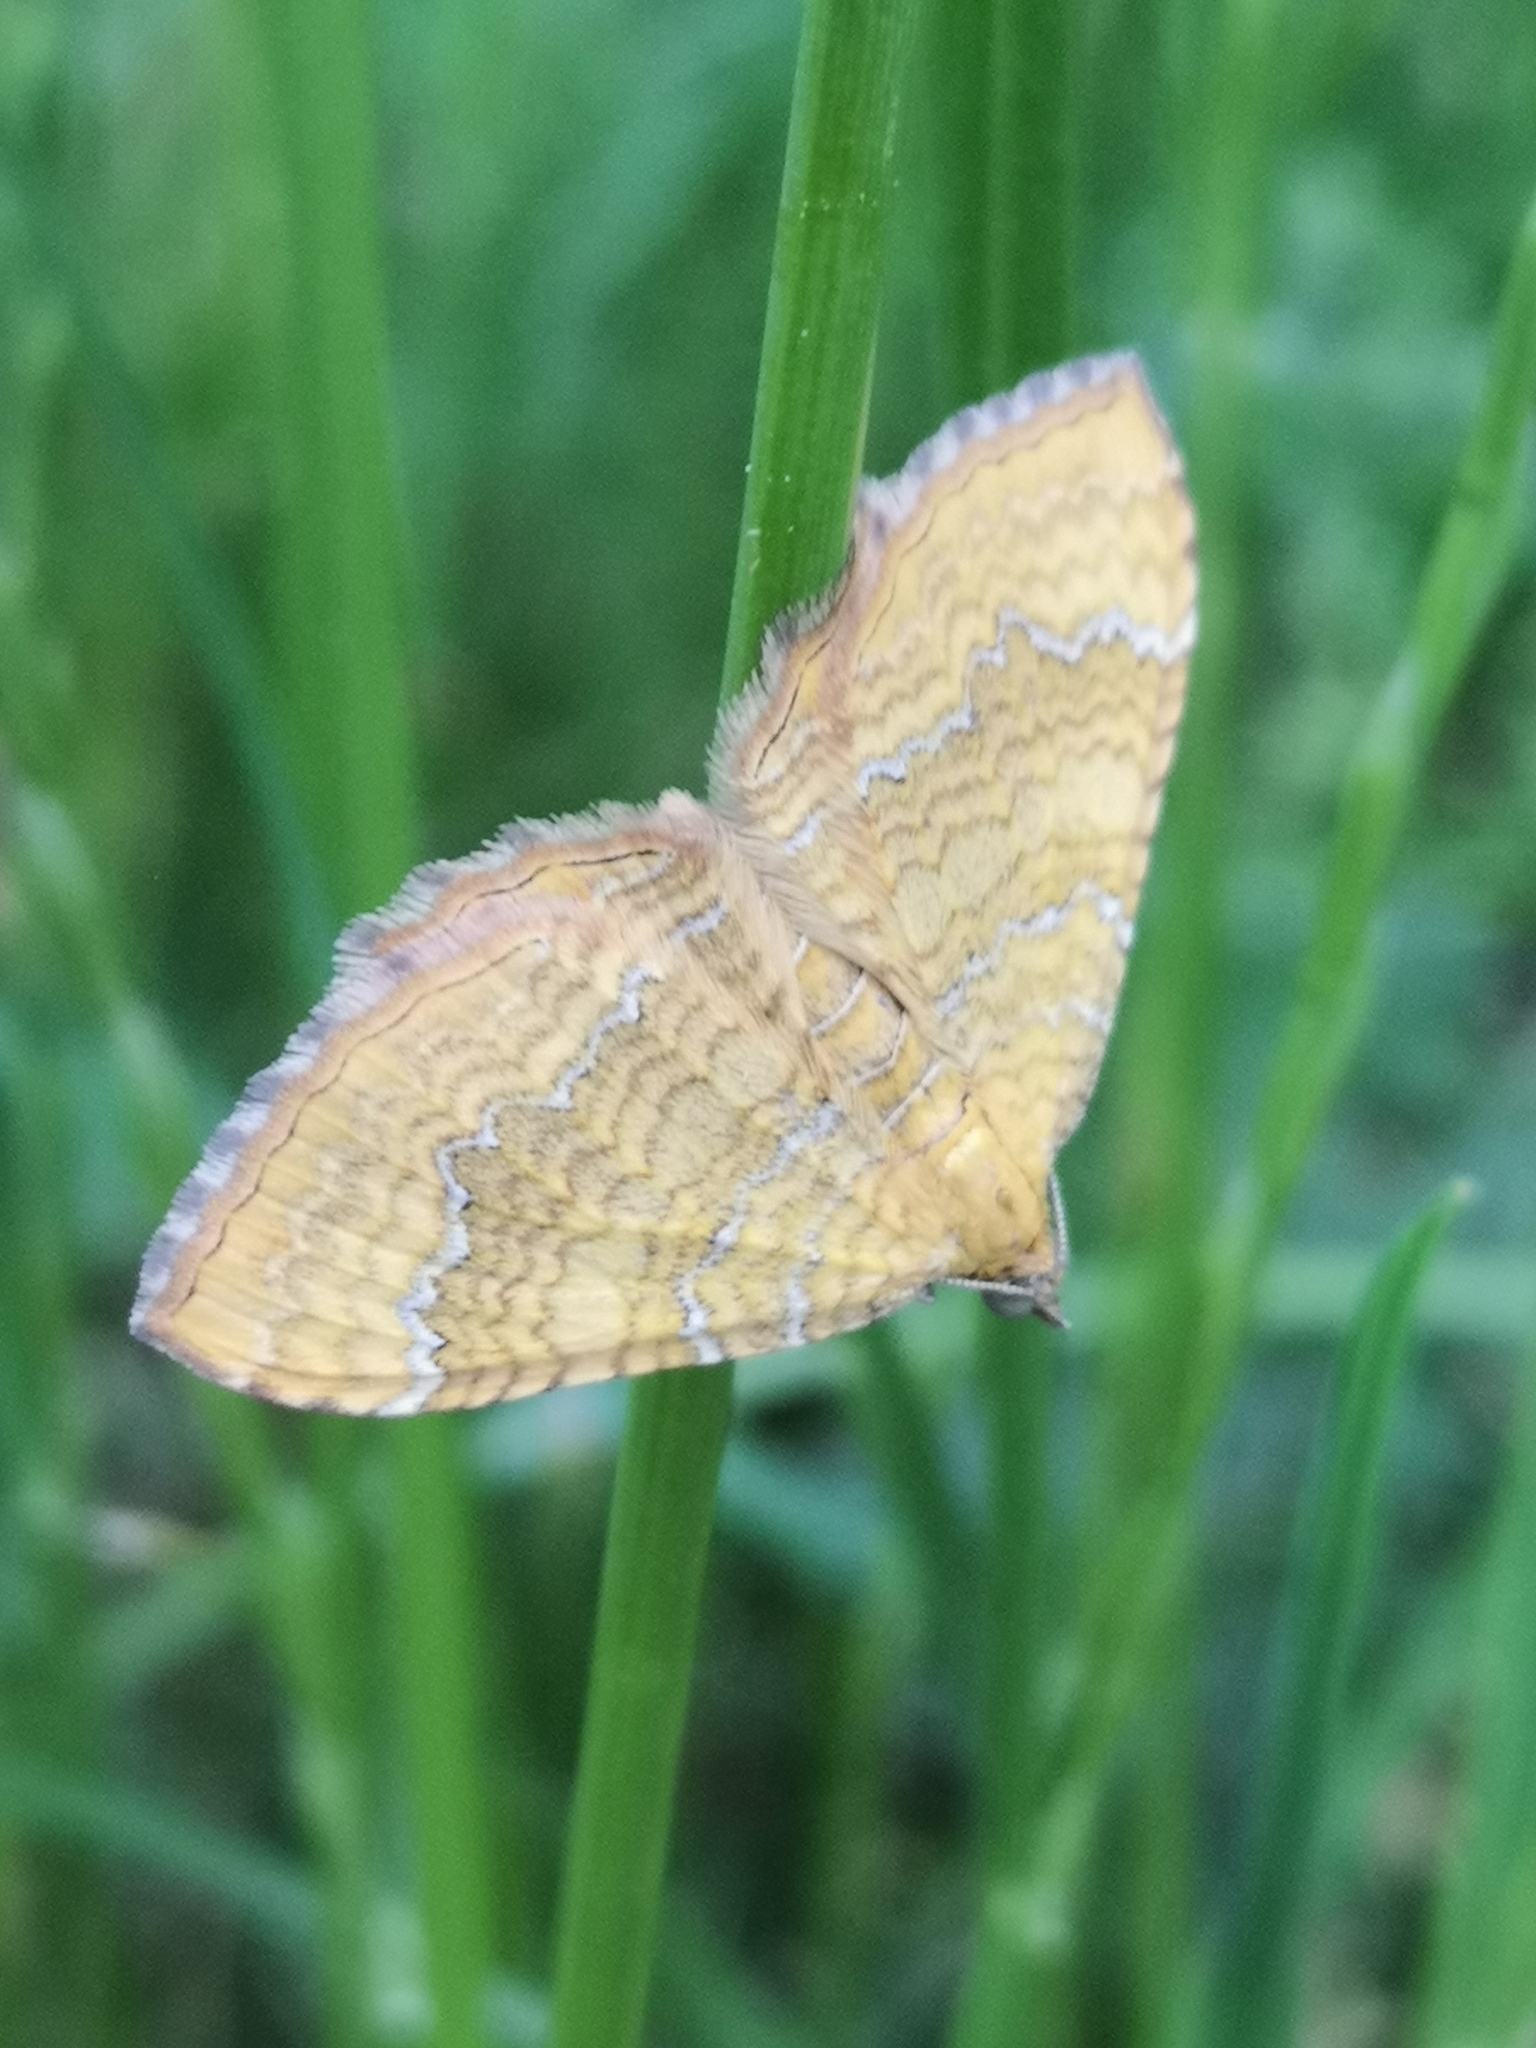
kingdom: Animalia
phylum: Arthropoda
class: Insecta
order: Lepidoptera
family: Geometridae
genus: Camptogramma
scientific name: Camptogramma bilineata
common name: Yellow shell
